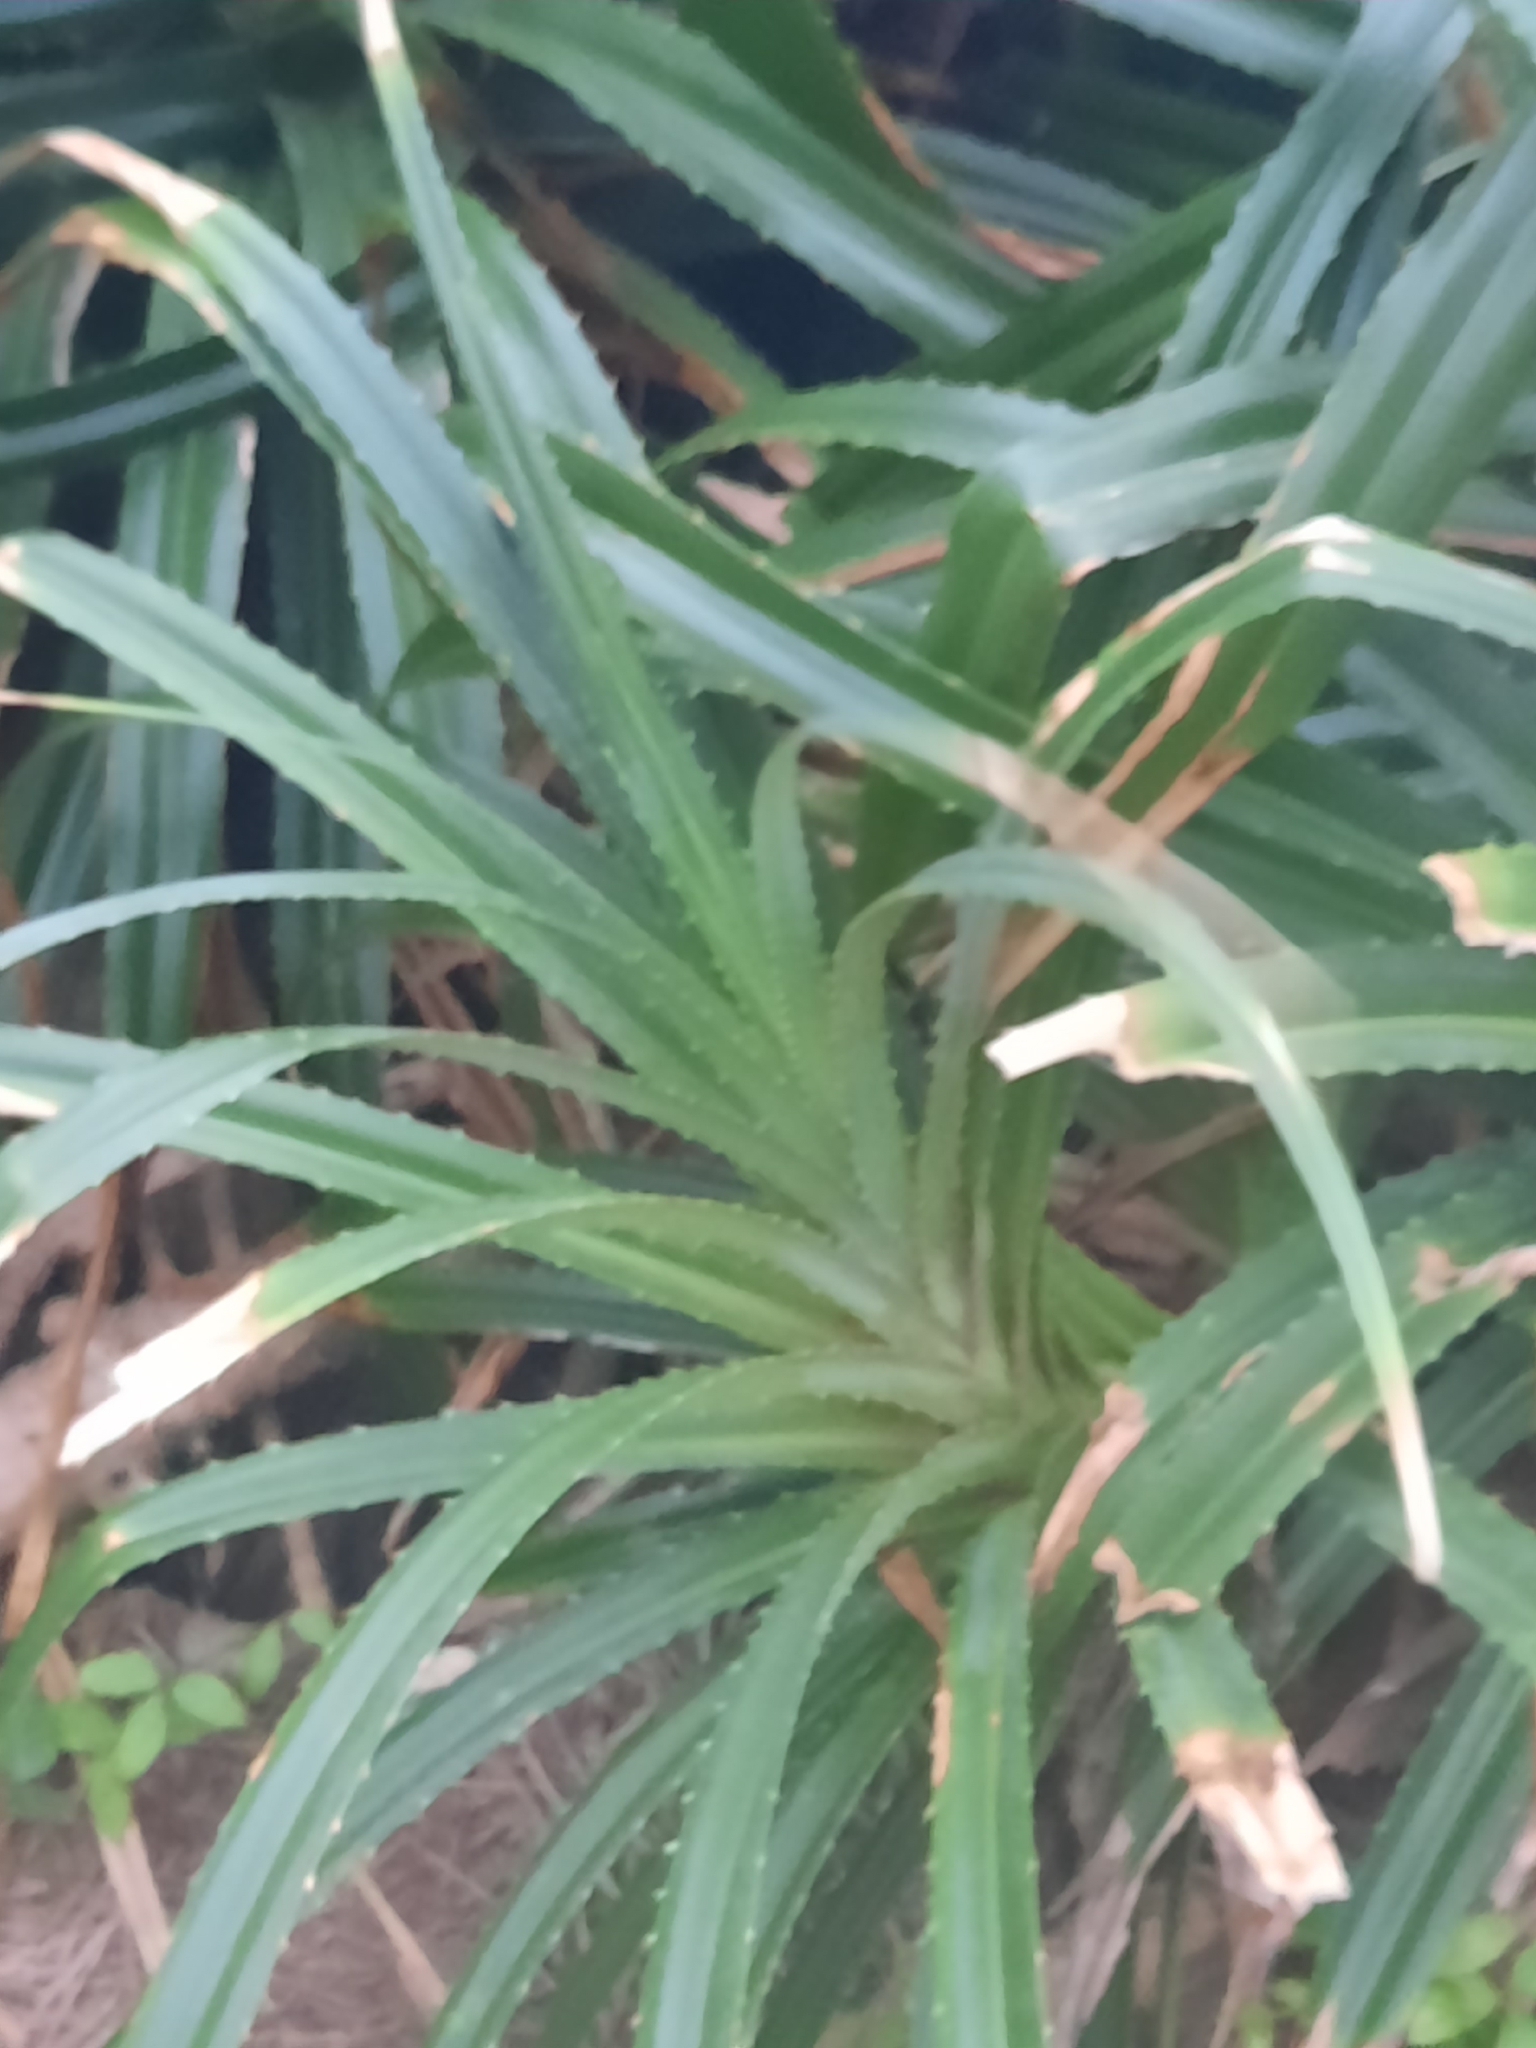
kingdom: Plantae
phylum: Tracheophyta
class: Liliopsida
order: Pandanales
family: Pandanaceae
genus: Pandanus
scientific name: Pandanus odorifer
